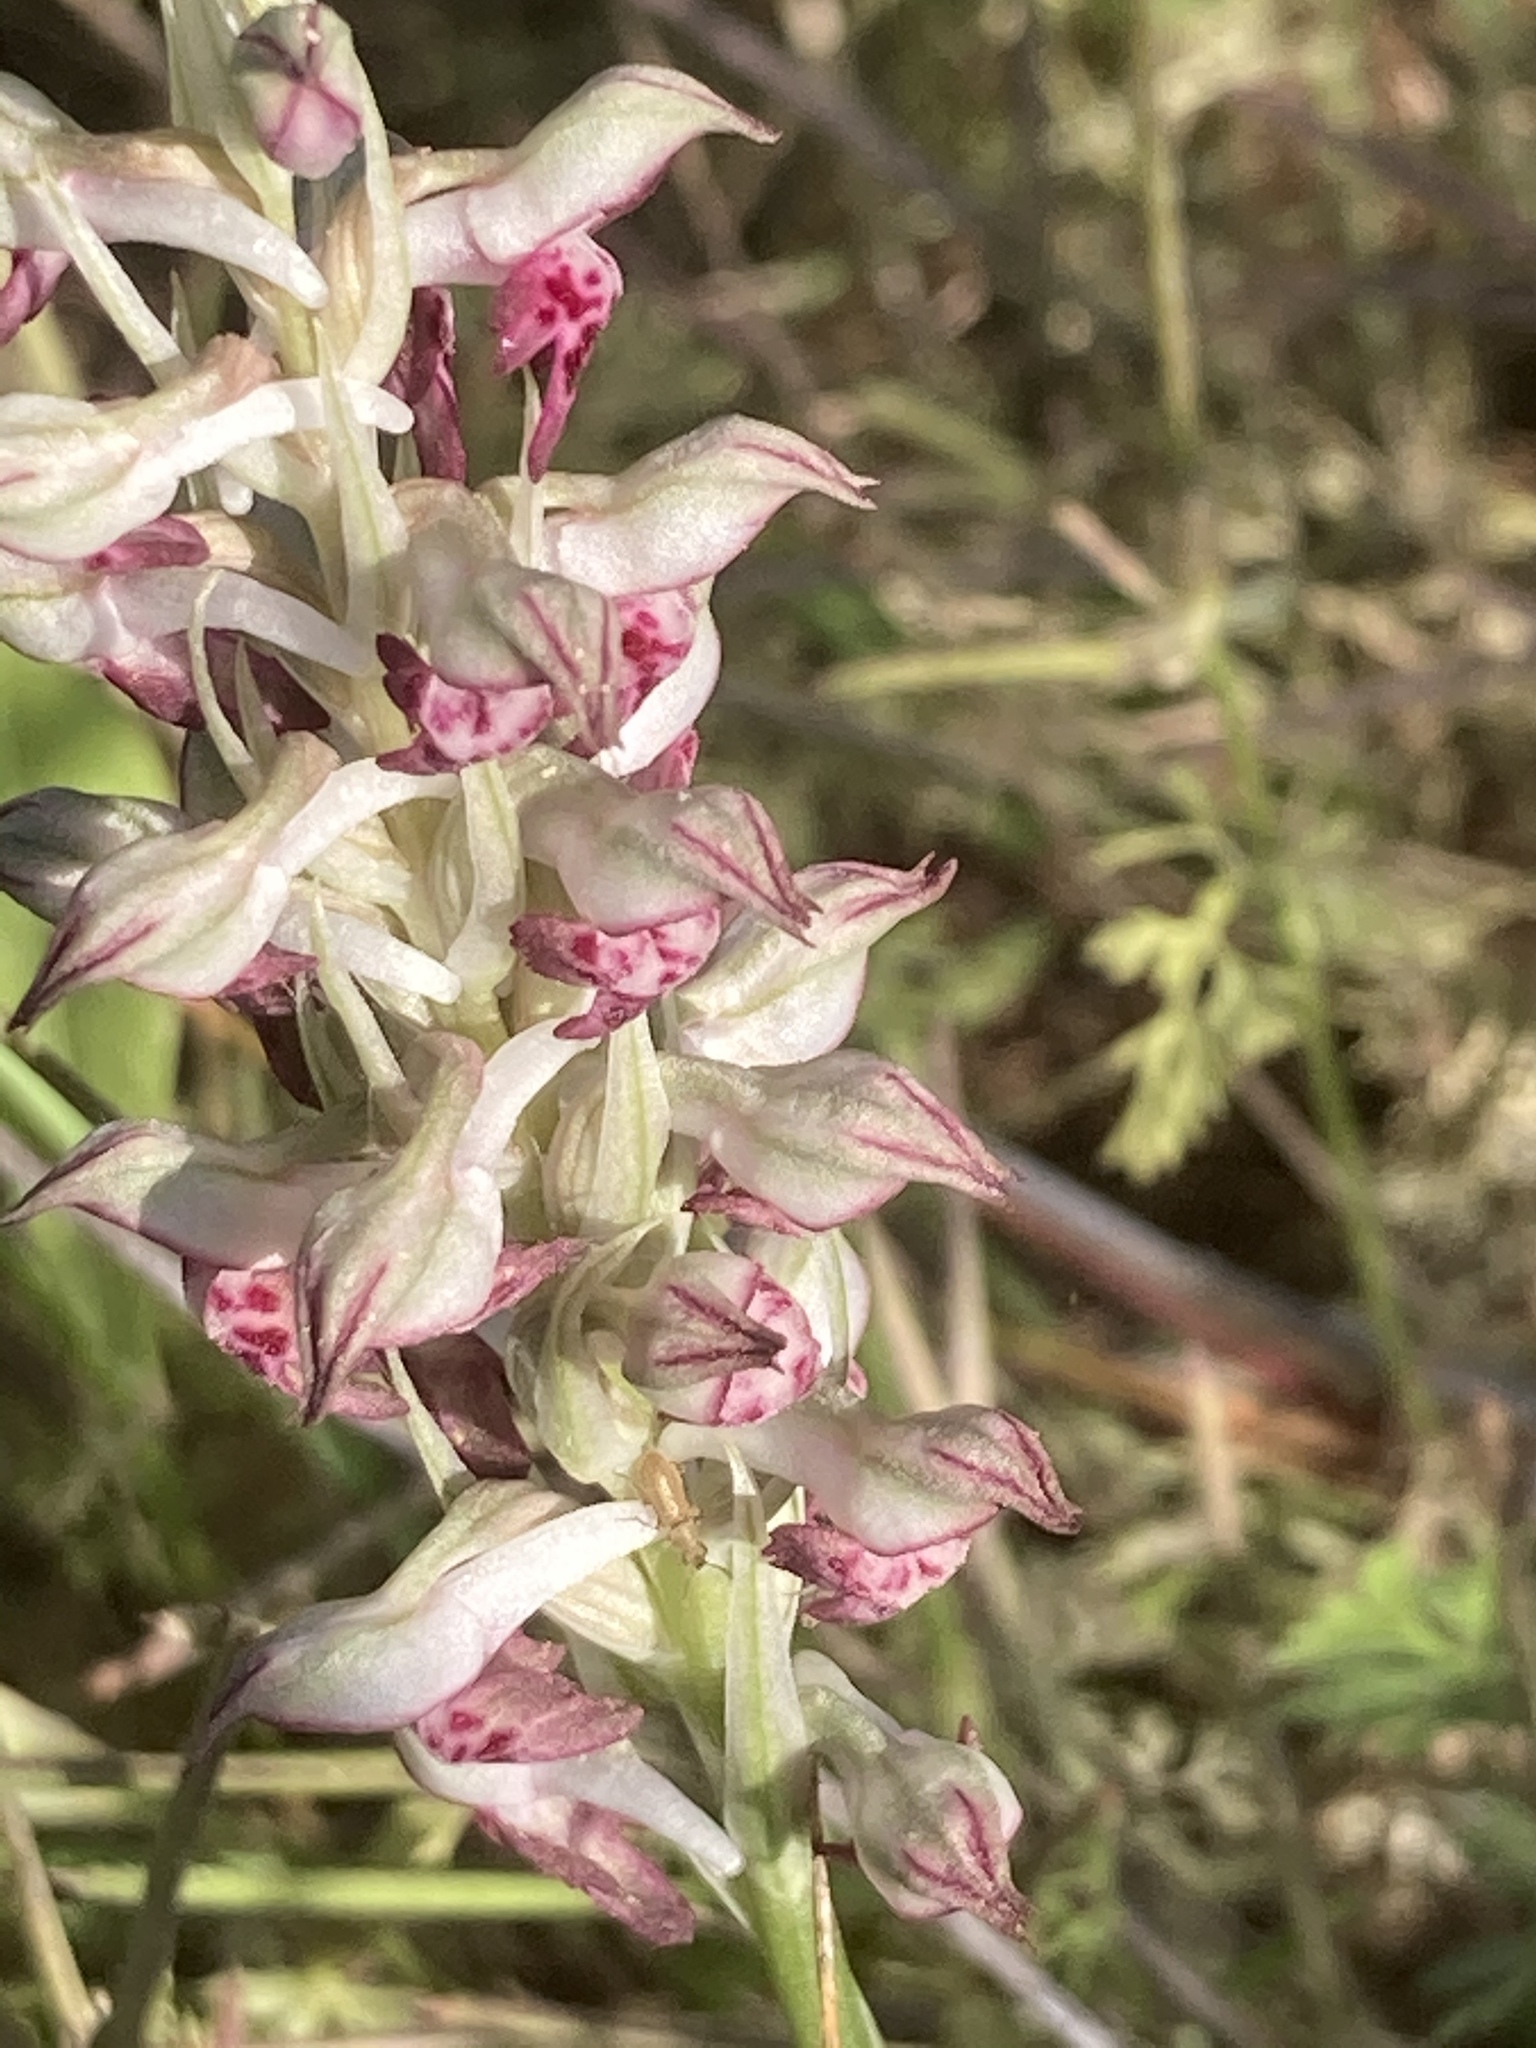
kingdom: Plantae
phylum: Tracheophyta
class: Liliopsida
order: Asparagales
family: Orchidaceae
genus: Anacamptis
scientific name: Anacamptis coriophora
